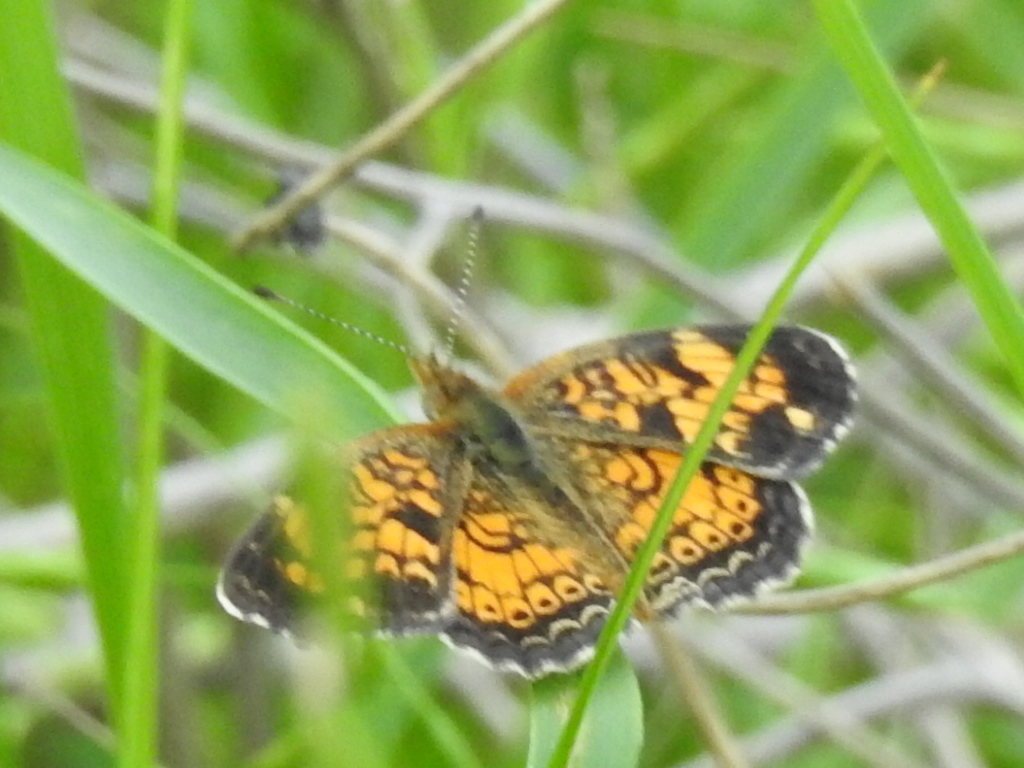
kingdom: Animalia
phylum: Arthropoda
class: Insecta
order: Lepidoptera
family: Nymphalidae
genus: Phyciodes
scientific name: Phyciodes tharos
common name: Pearl crescent
